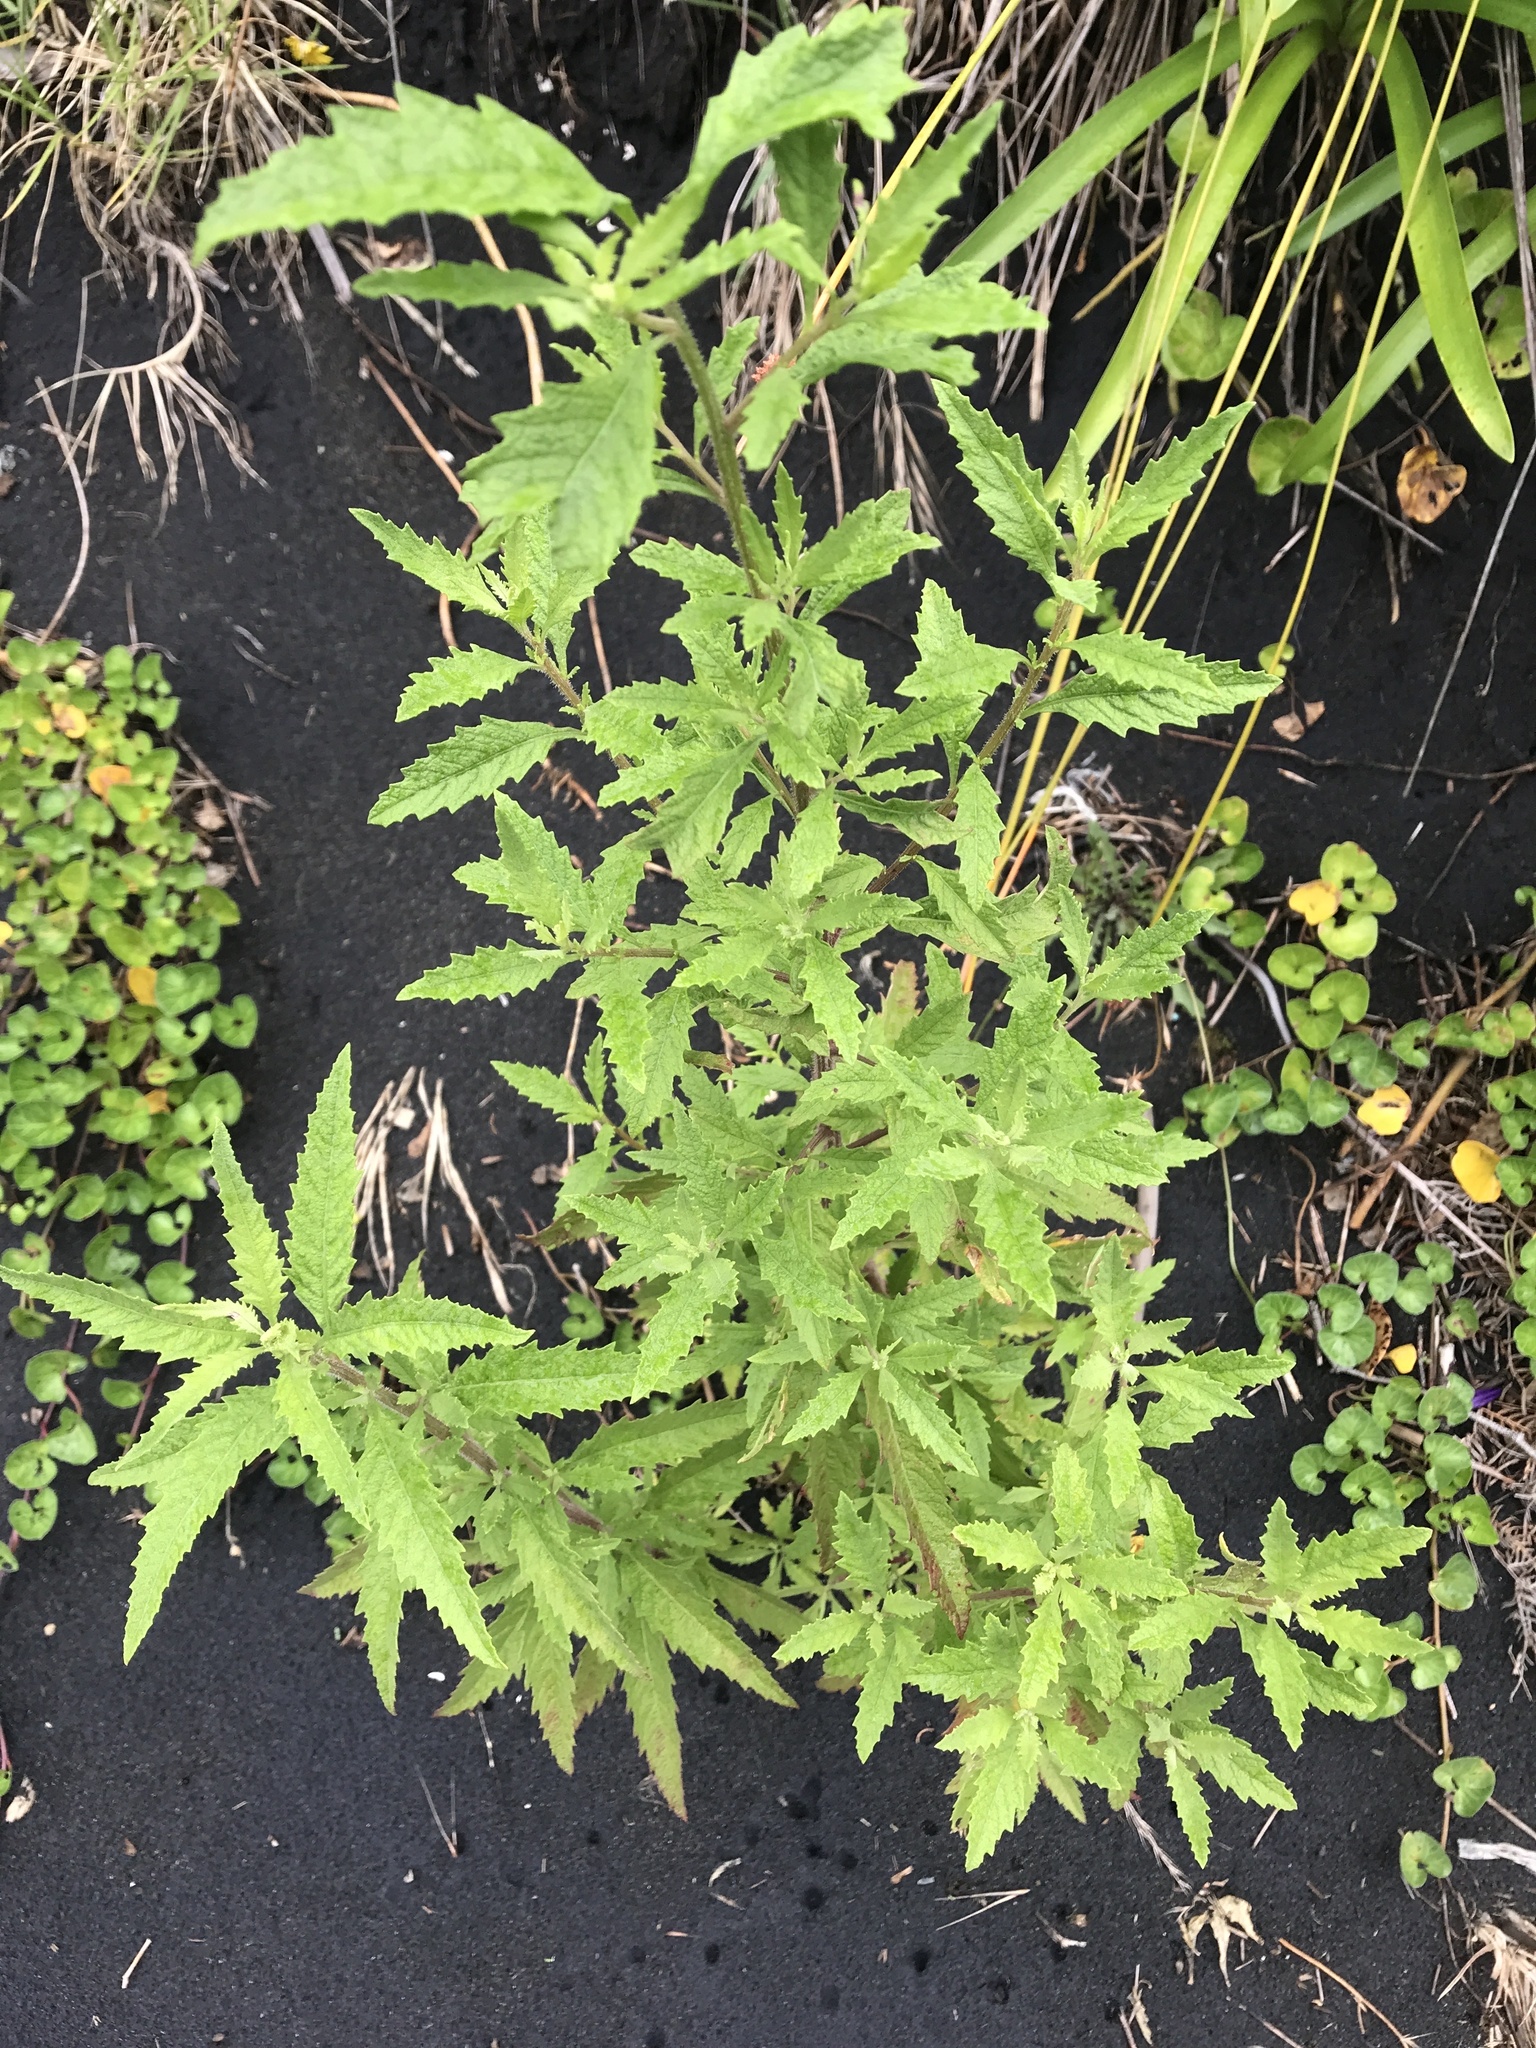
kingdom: Plantae
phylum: Tracheophyta
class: Magnoliopsida
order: Caryophyllales
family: Amaranthaceae
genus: Dysphania
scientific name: Dysphania ambrosioides
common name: Wormseed
